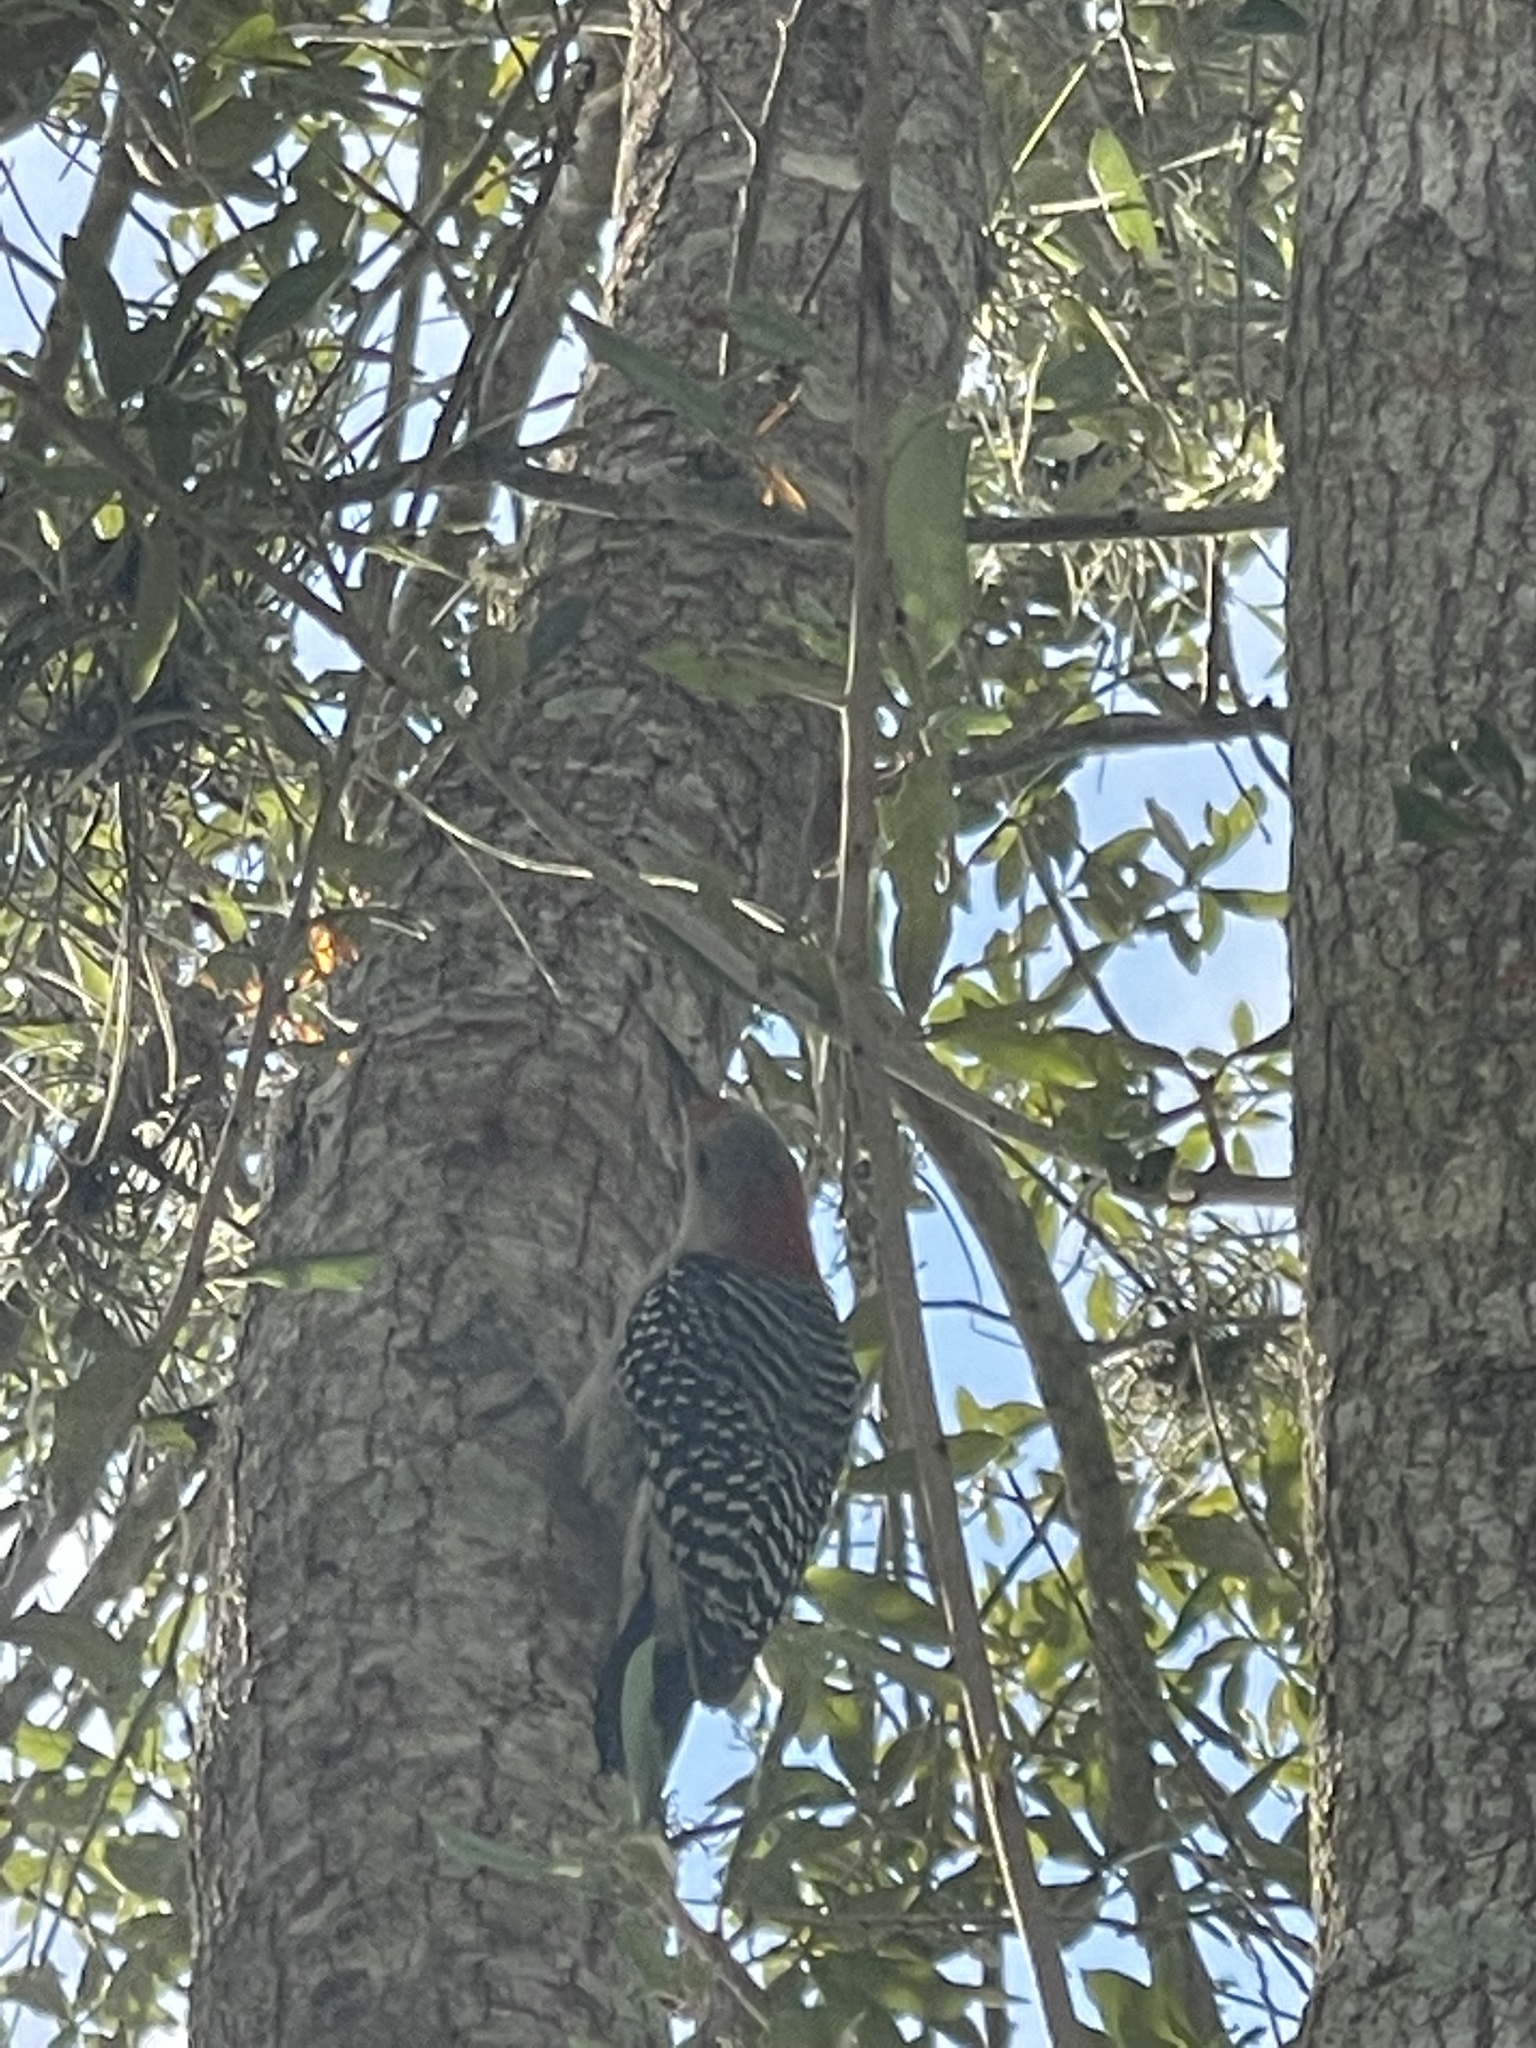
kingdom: Animalia
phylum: Chordata
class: Aves
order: Piciformes
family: Picidae
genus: Melanerpes
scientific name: Melanerpes carolinus
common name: Red-bellied woodpecker
